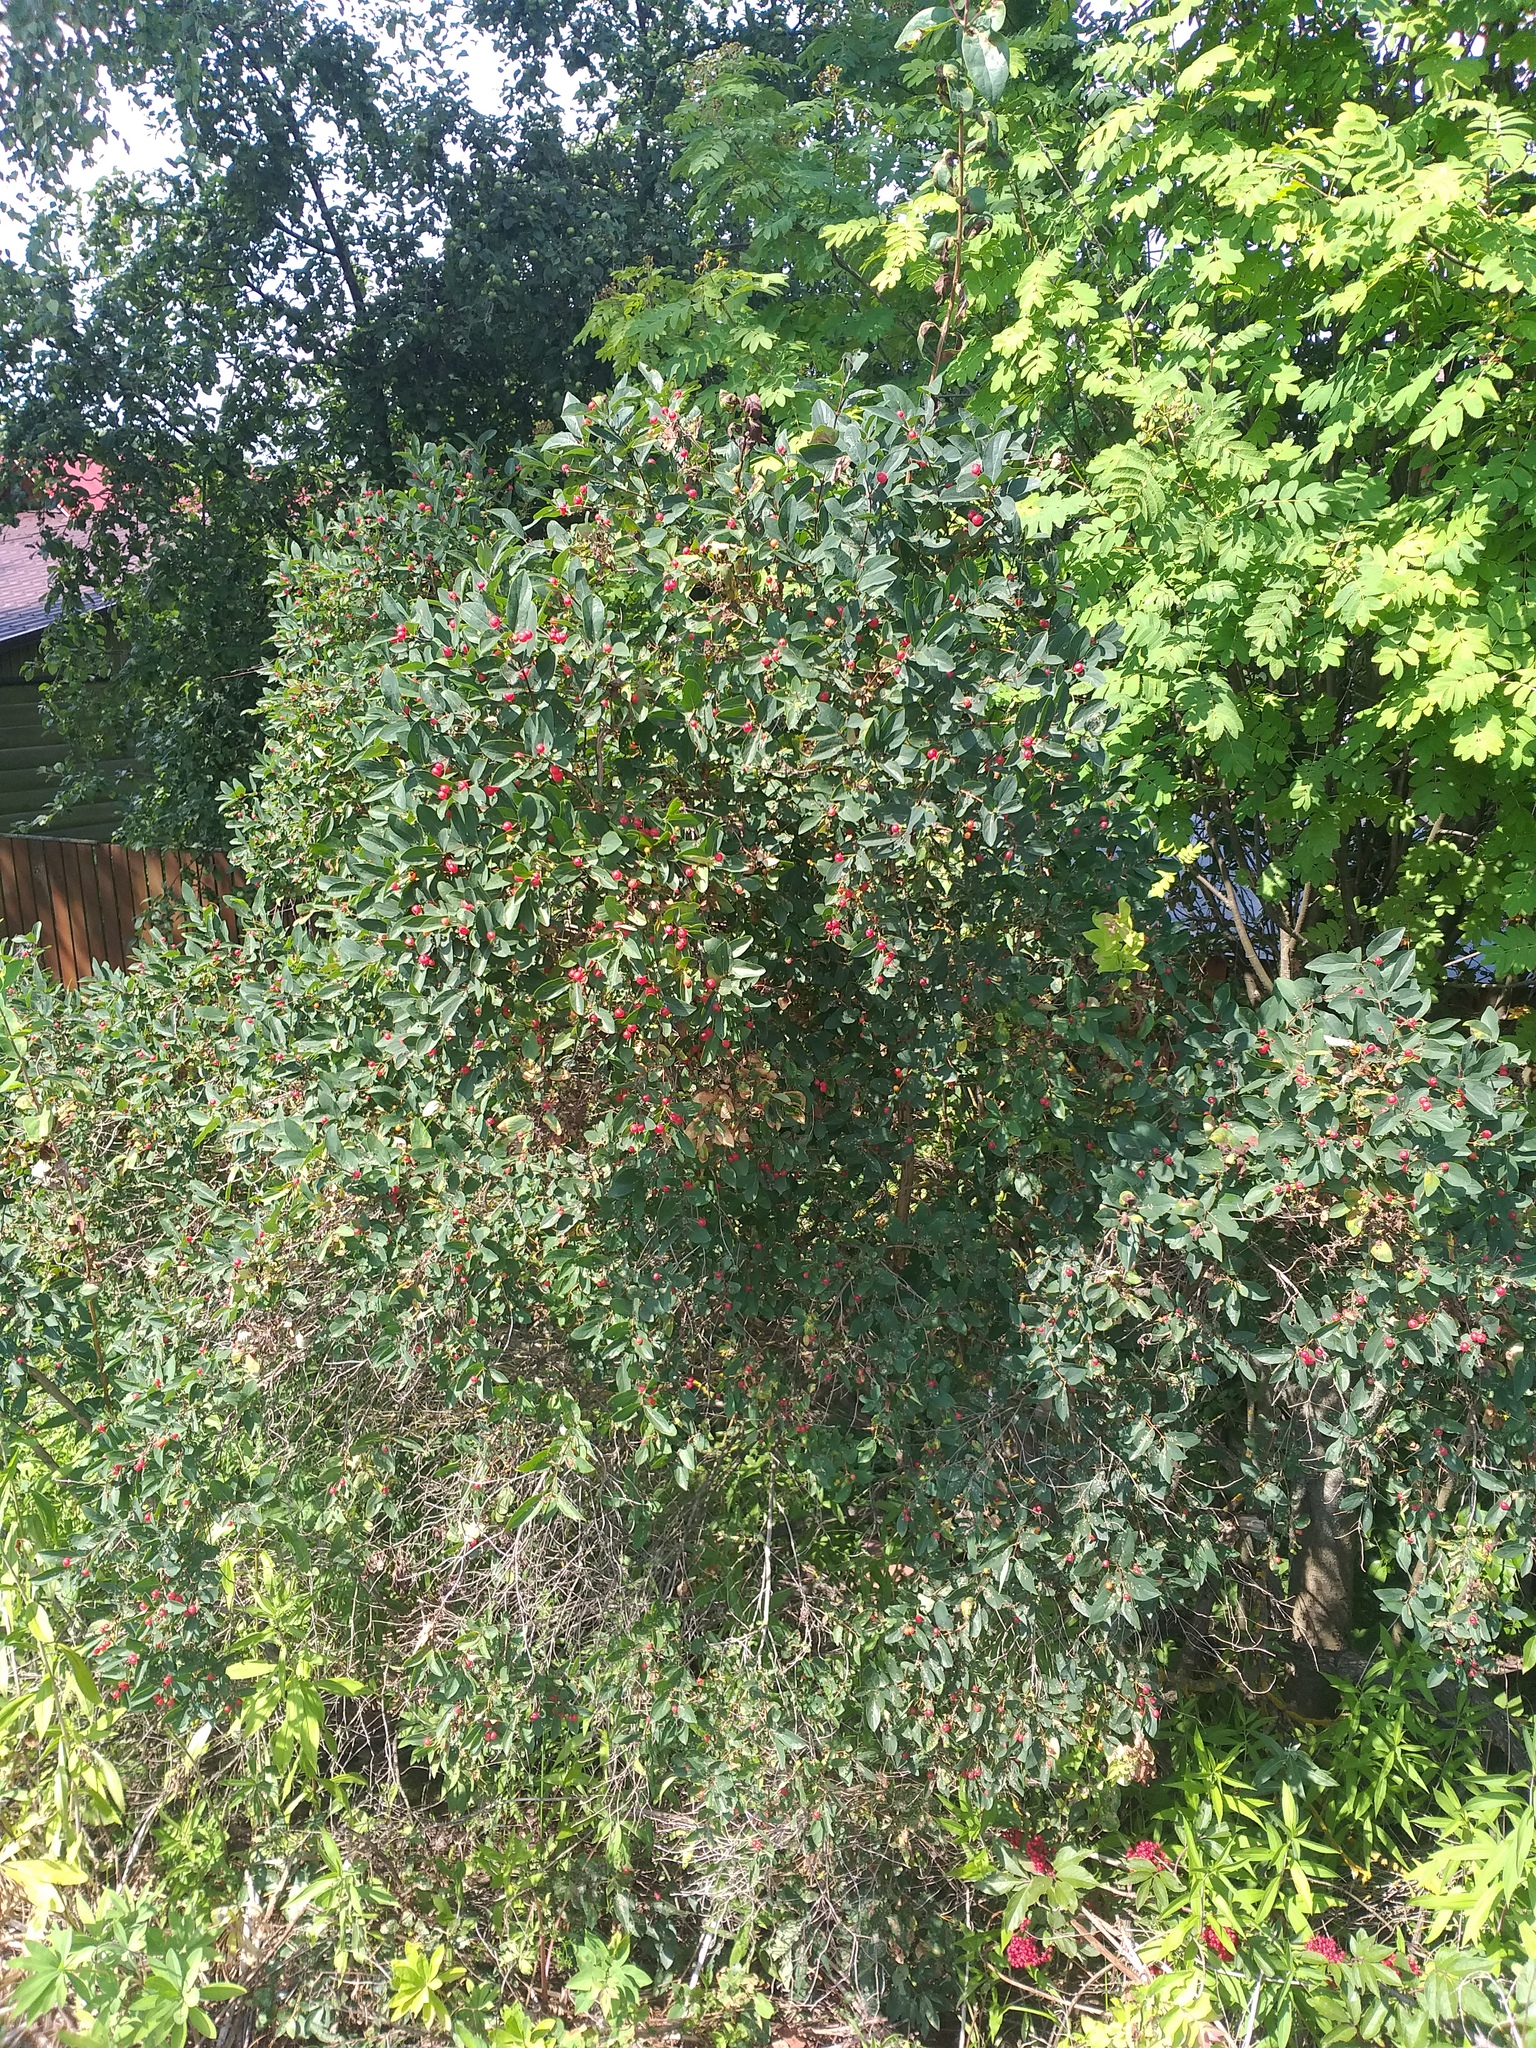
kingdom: Plantae
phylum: Tracheophyta
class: Magnoliopsida
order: Dipsacales
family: Caprifoliaceae
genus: Lonicera
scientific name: Lonicera tatarica
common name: Tatarian honeysuckle
